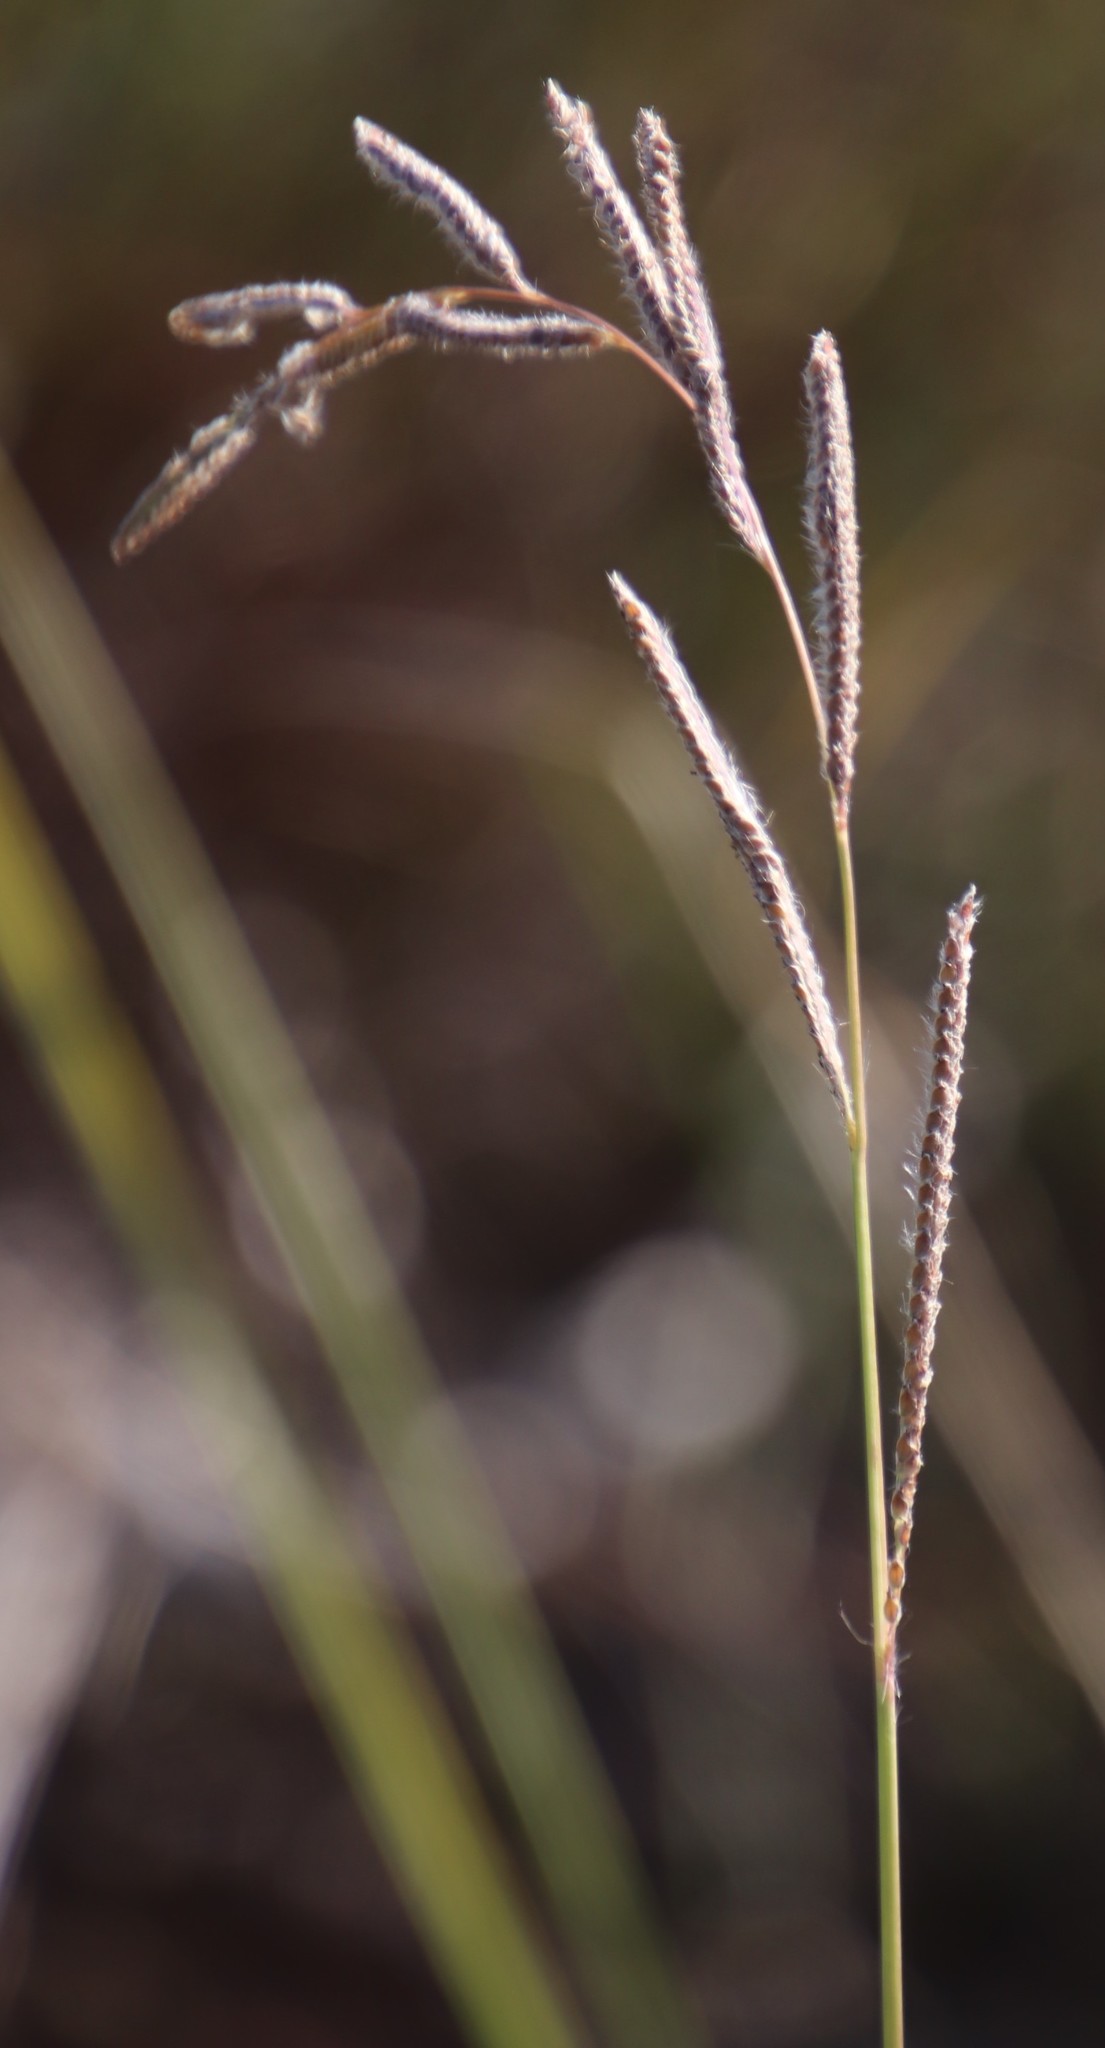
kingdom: Plantae
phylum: Tracheophyta
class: Liliopsida
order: Poales
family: Poaceae
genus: Paspalum
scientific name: Paspalum urvillei
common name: Vasey's grass
